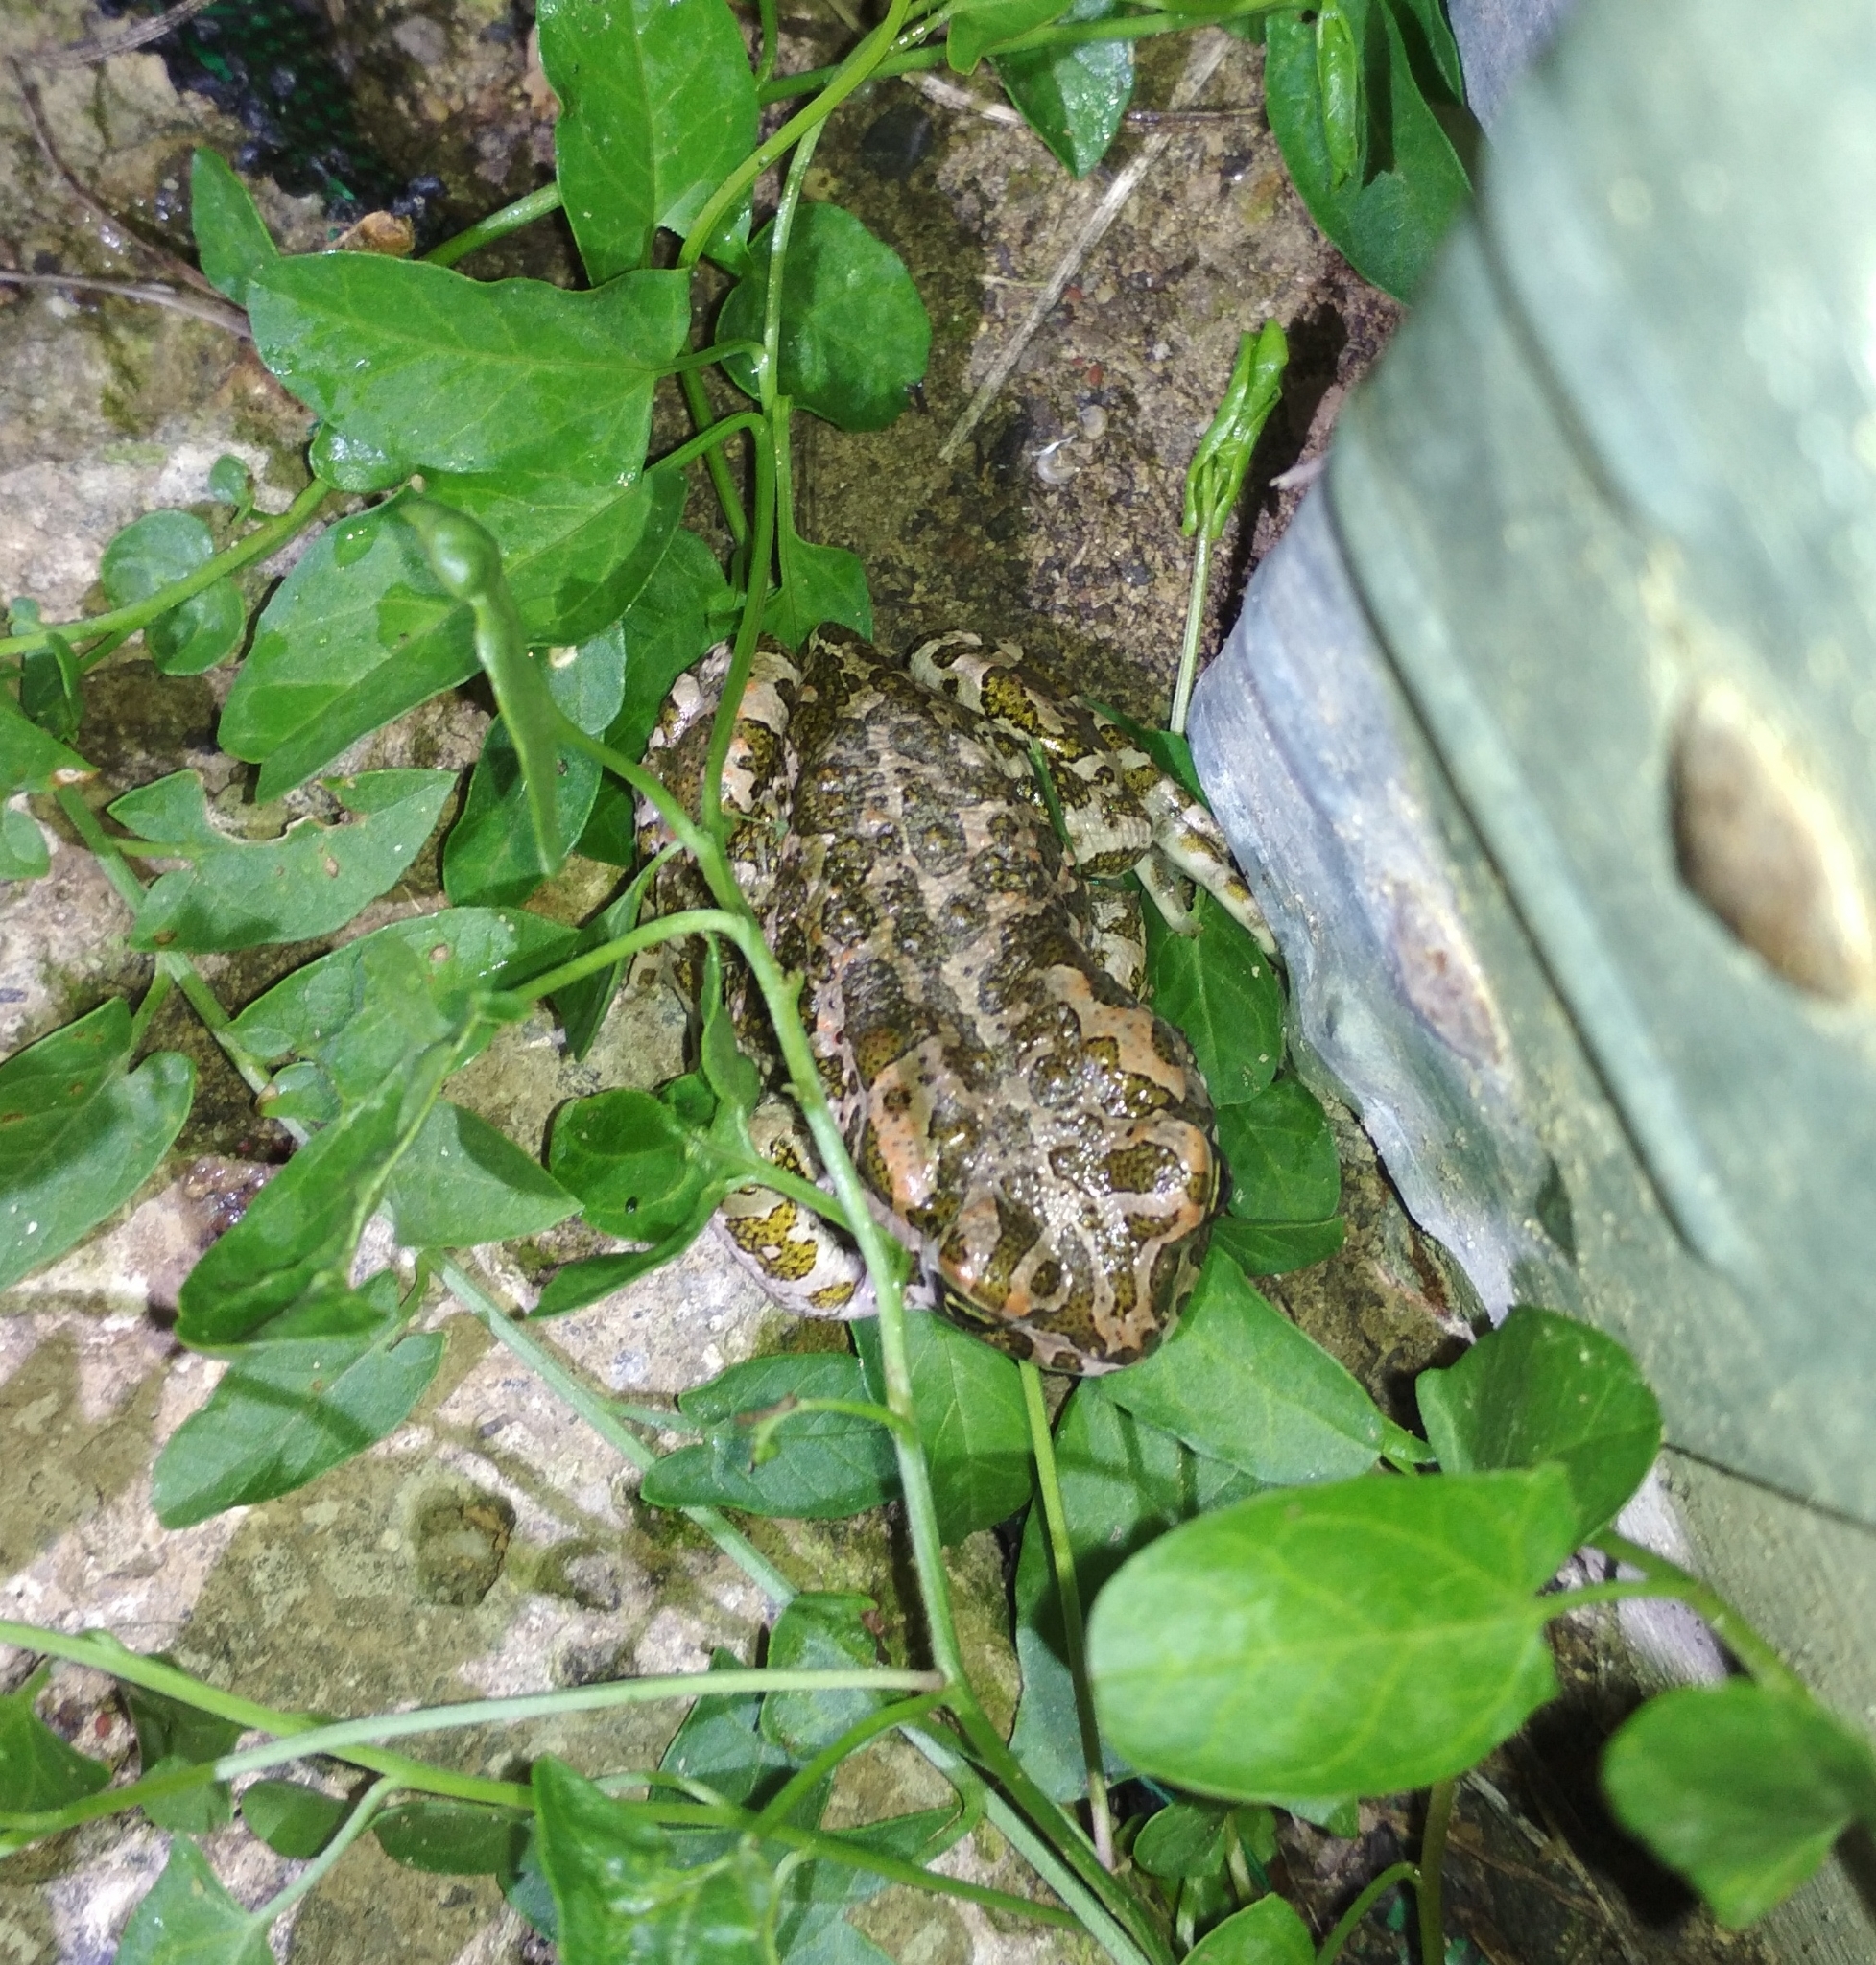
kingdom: Animalia
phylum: Chordata
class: Amphibia
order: Anura
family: Bufonidae
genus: Bufotes
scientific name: Bufotes viridis
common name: European green toad
